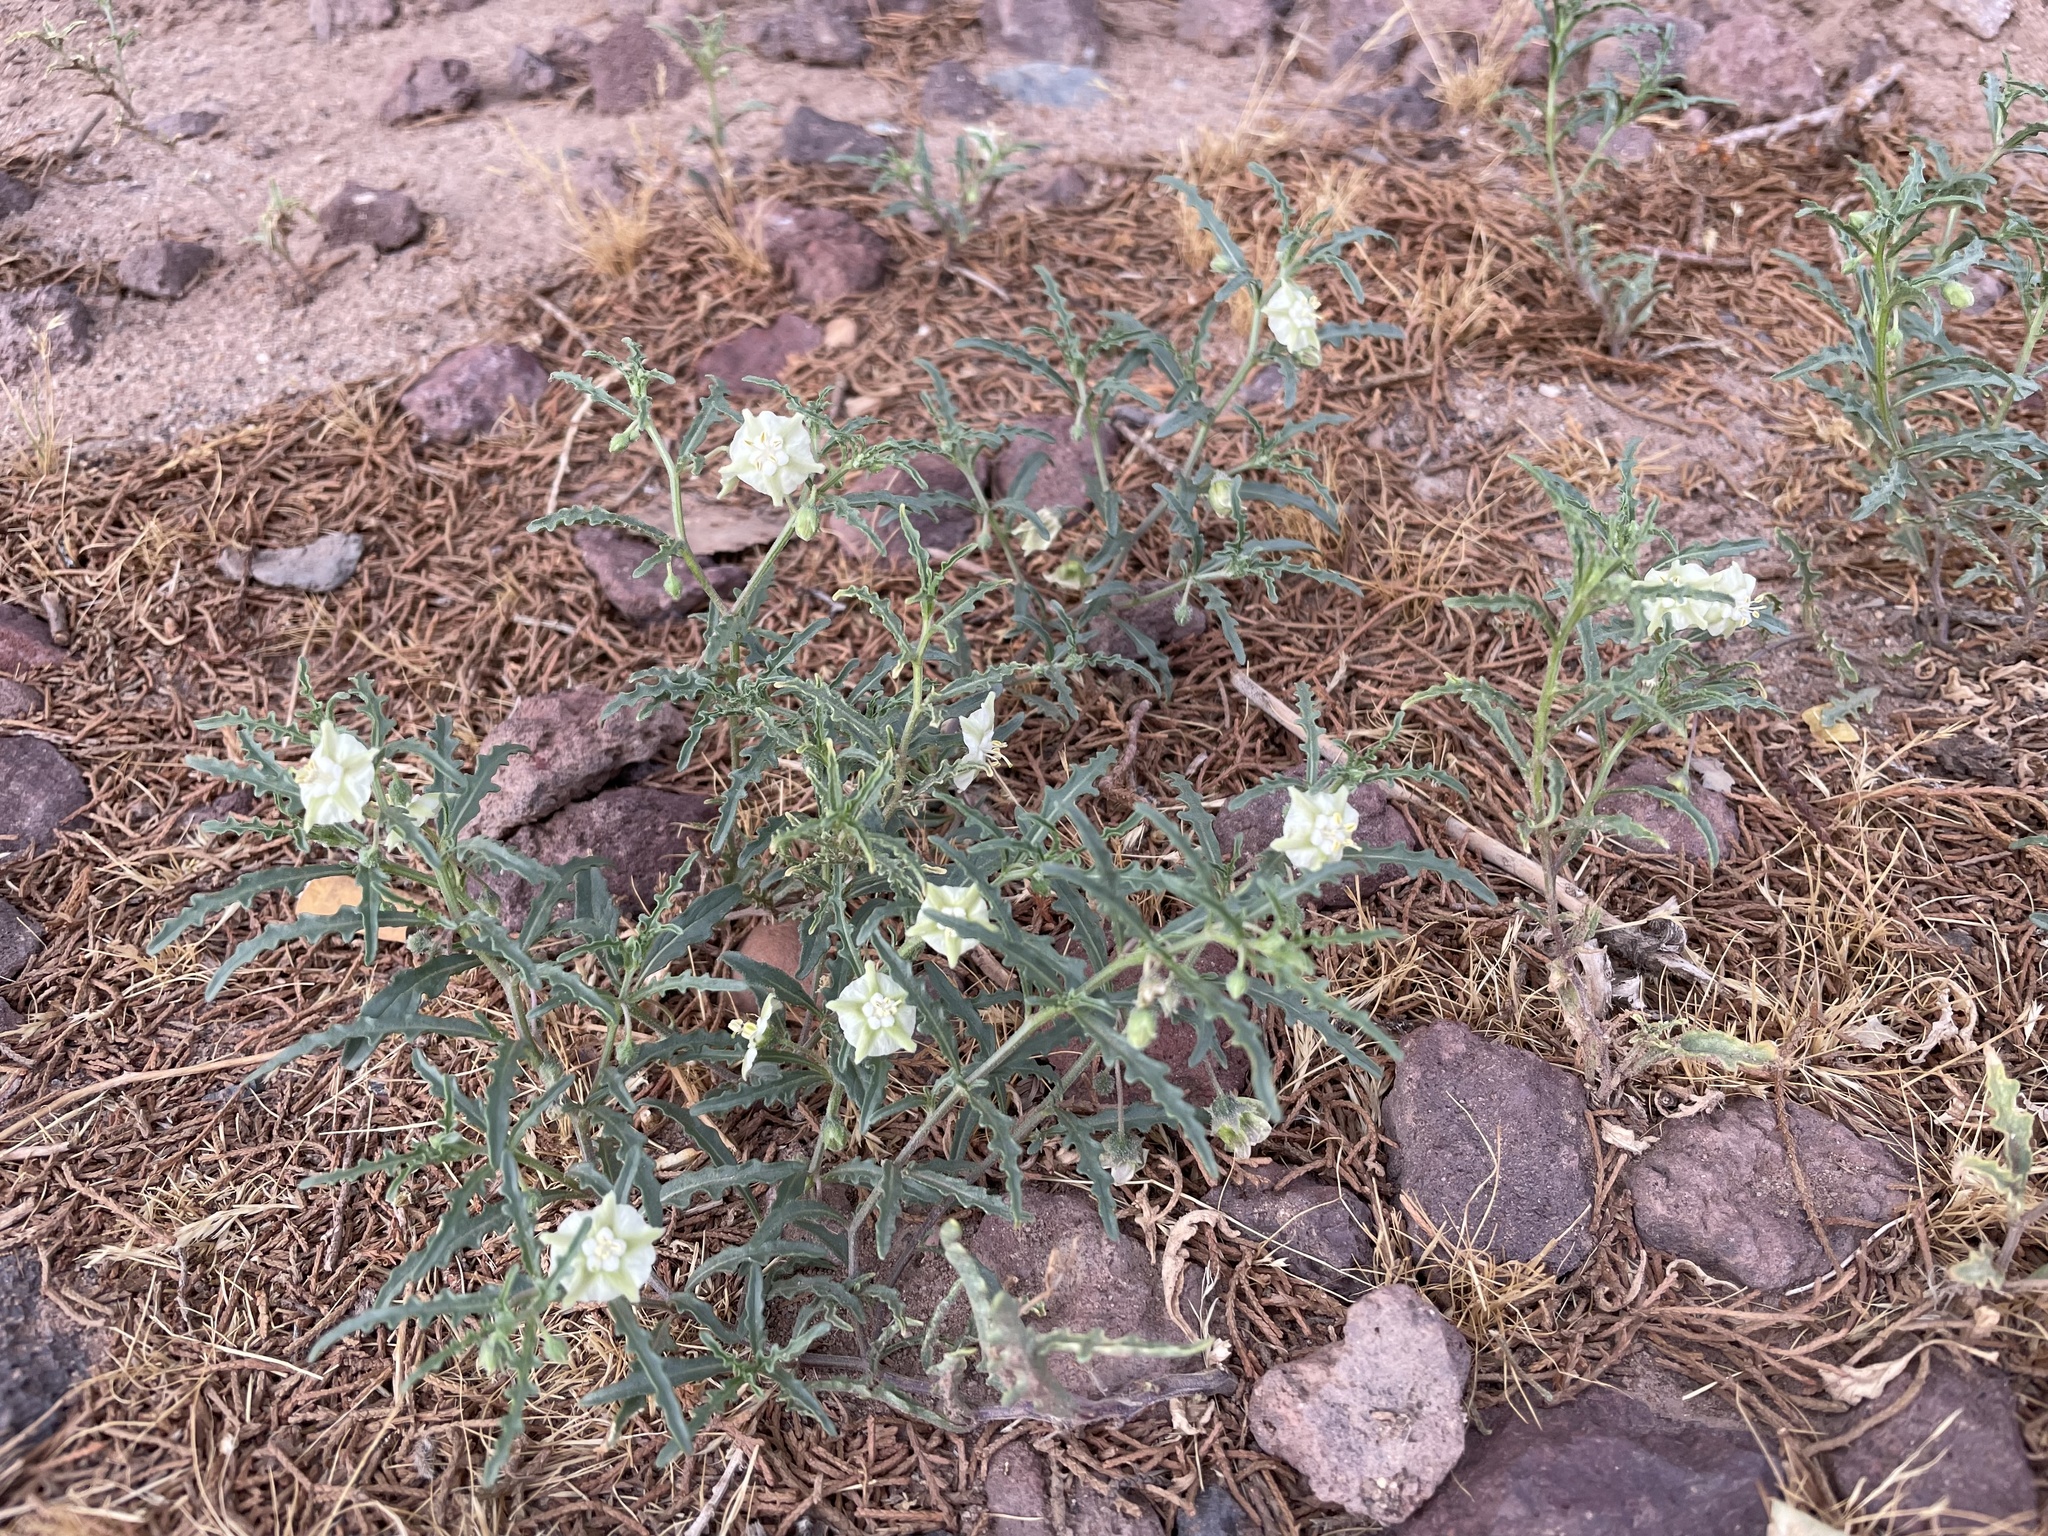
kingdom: Plantae
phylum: Tracheophyta
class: Magnoliopsida
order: Solanales
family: Solanaceae
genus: Chamaesaracha
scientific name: Chamaesaracha coronopus
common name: Smooth chamaesaracha
